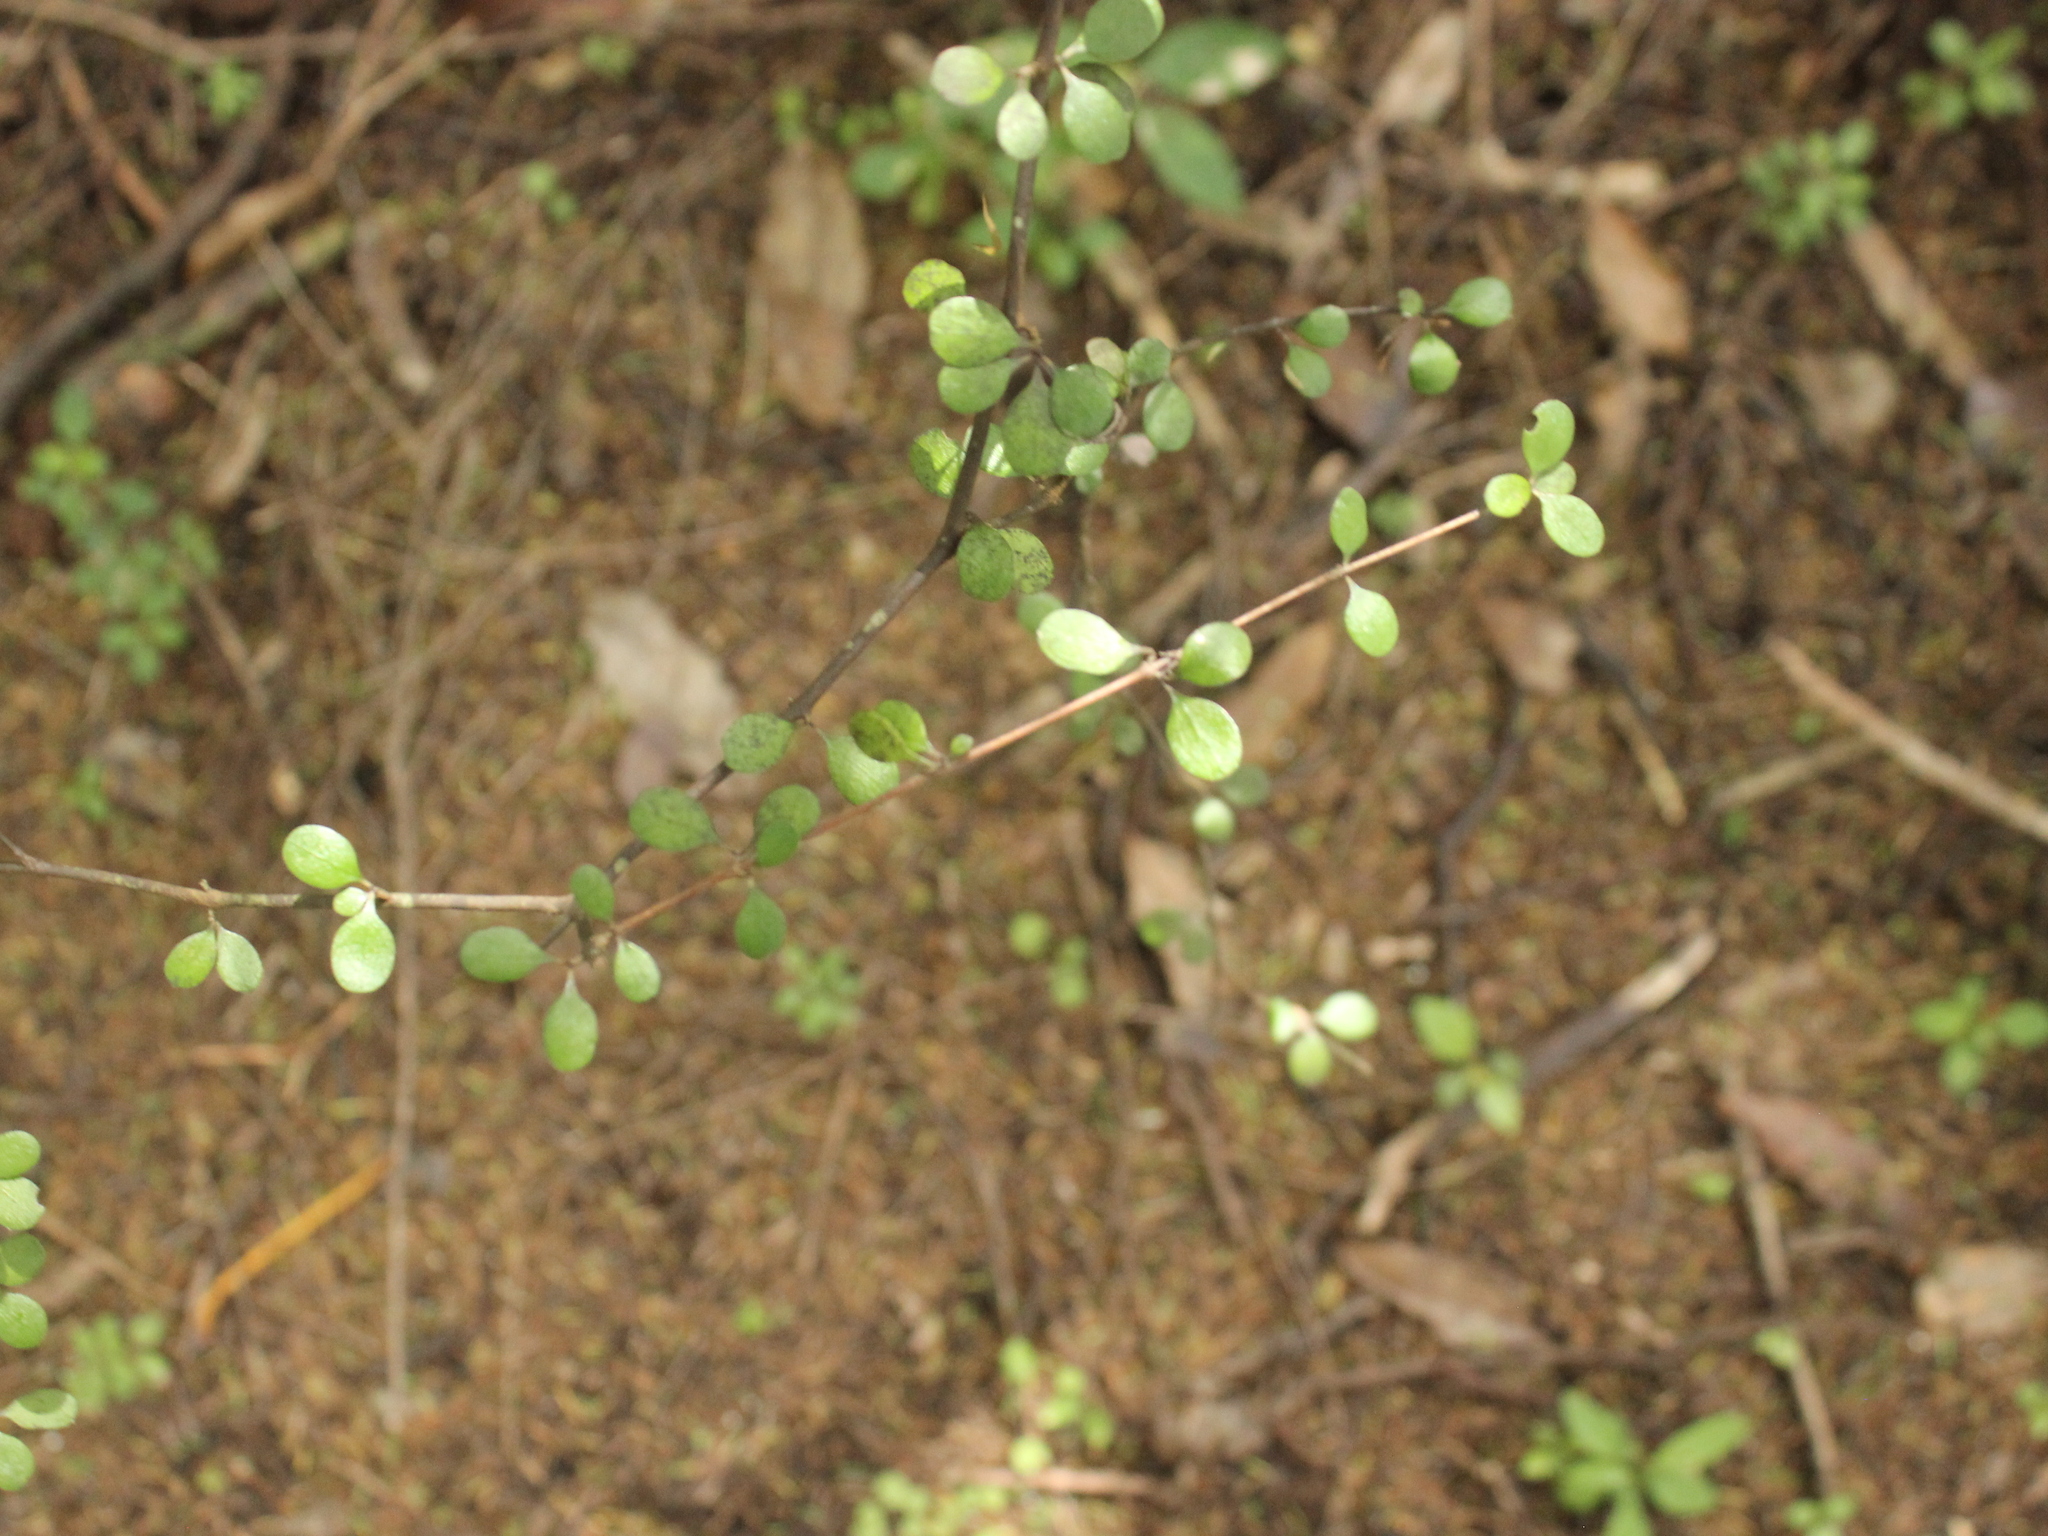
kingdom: Plantae
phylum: Tracheophyta
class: Magnoliopsida
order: Gentianales
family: Rubiaceae
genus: Coprosma
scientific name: Coprosma crassifolia
